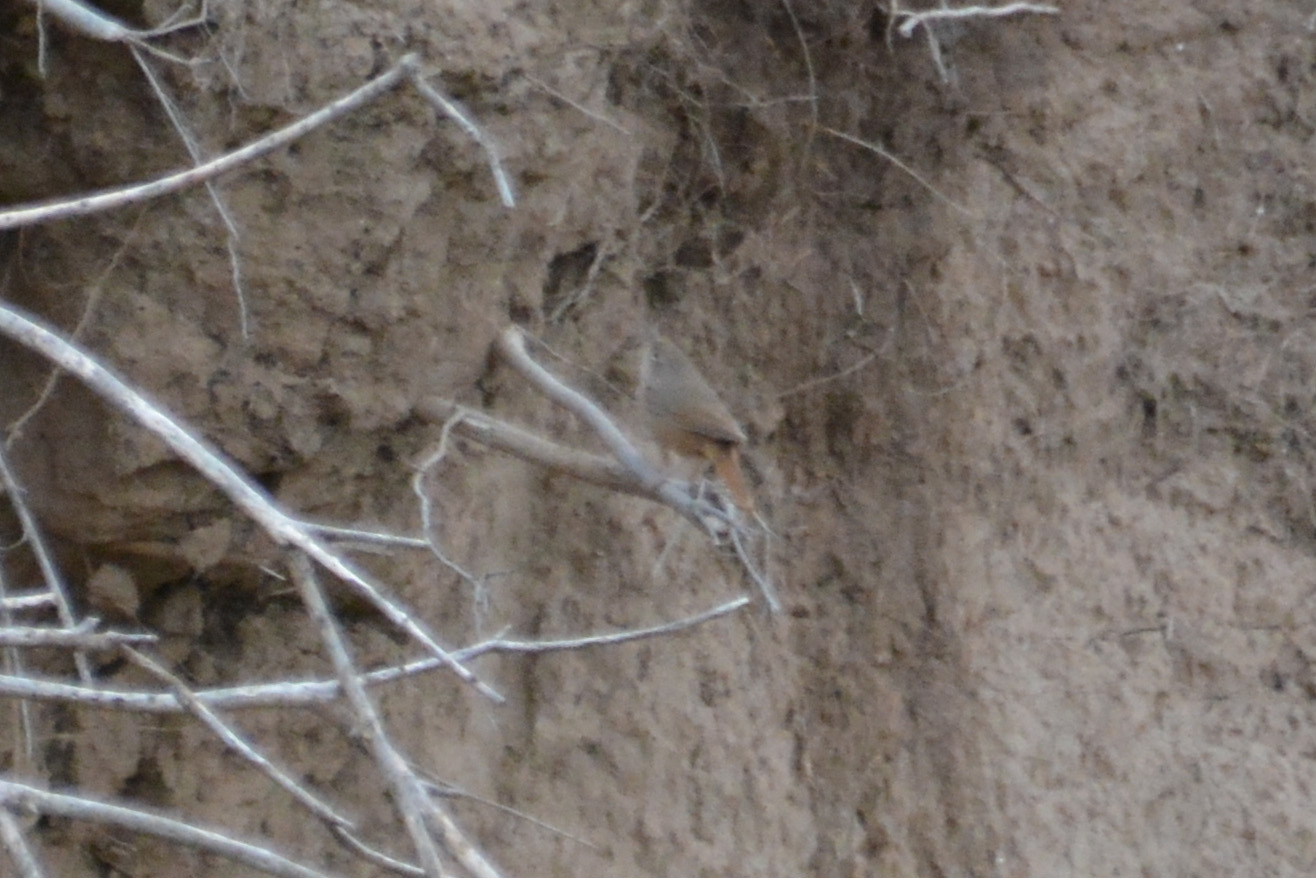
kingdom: Animalia
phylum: Chordata
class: Aves
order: Passeriformes
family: Troglodytidae
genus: Troglodytes
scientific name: Troglodytes aedon
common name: House wren
